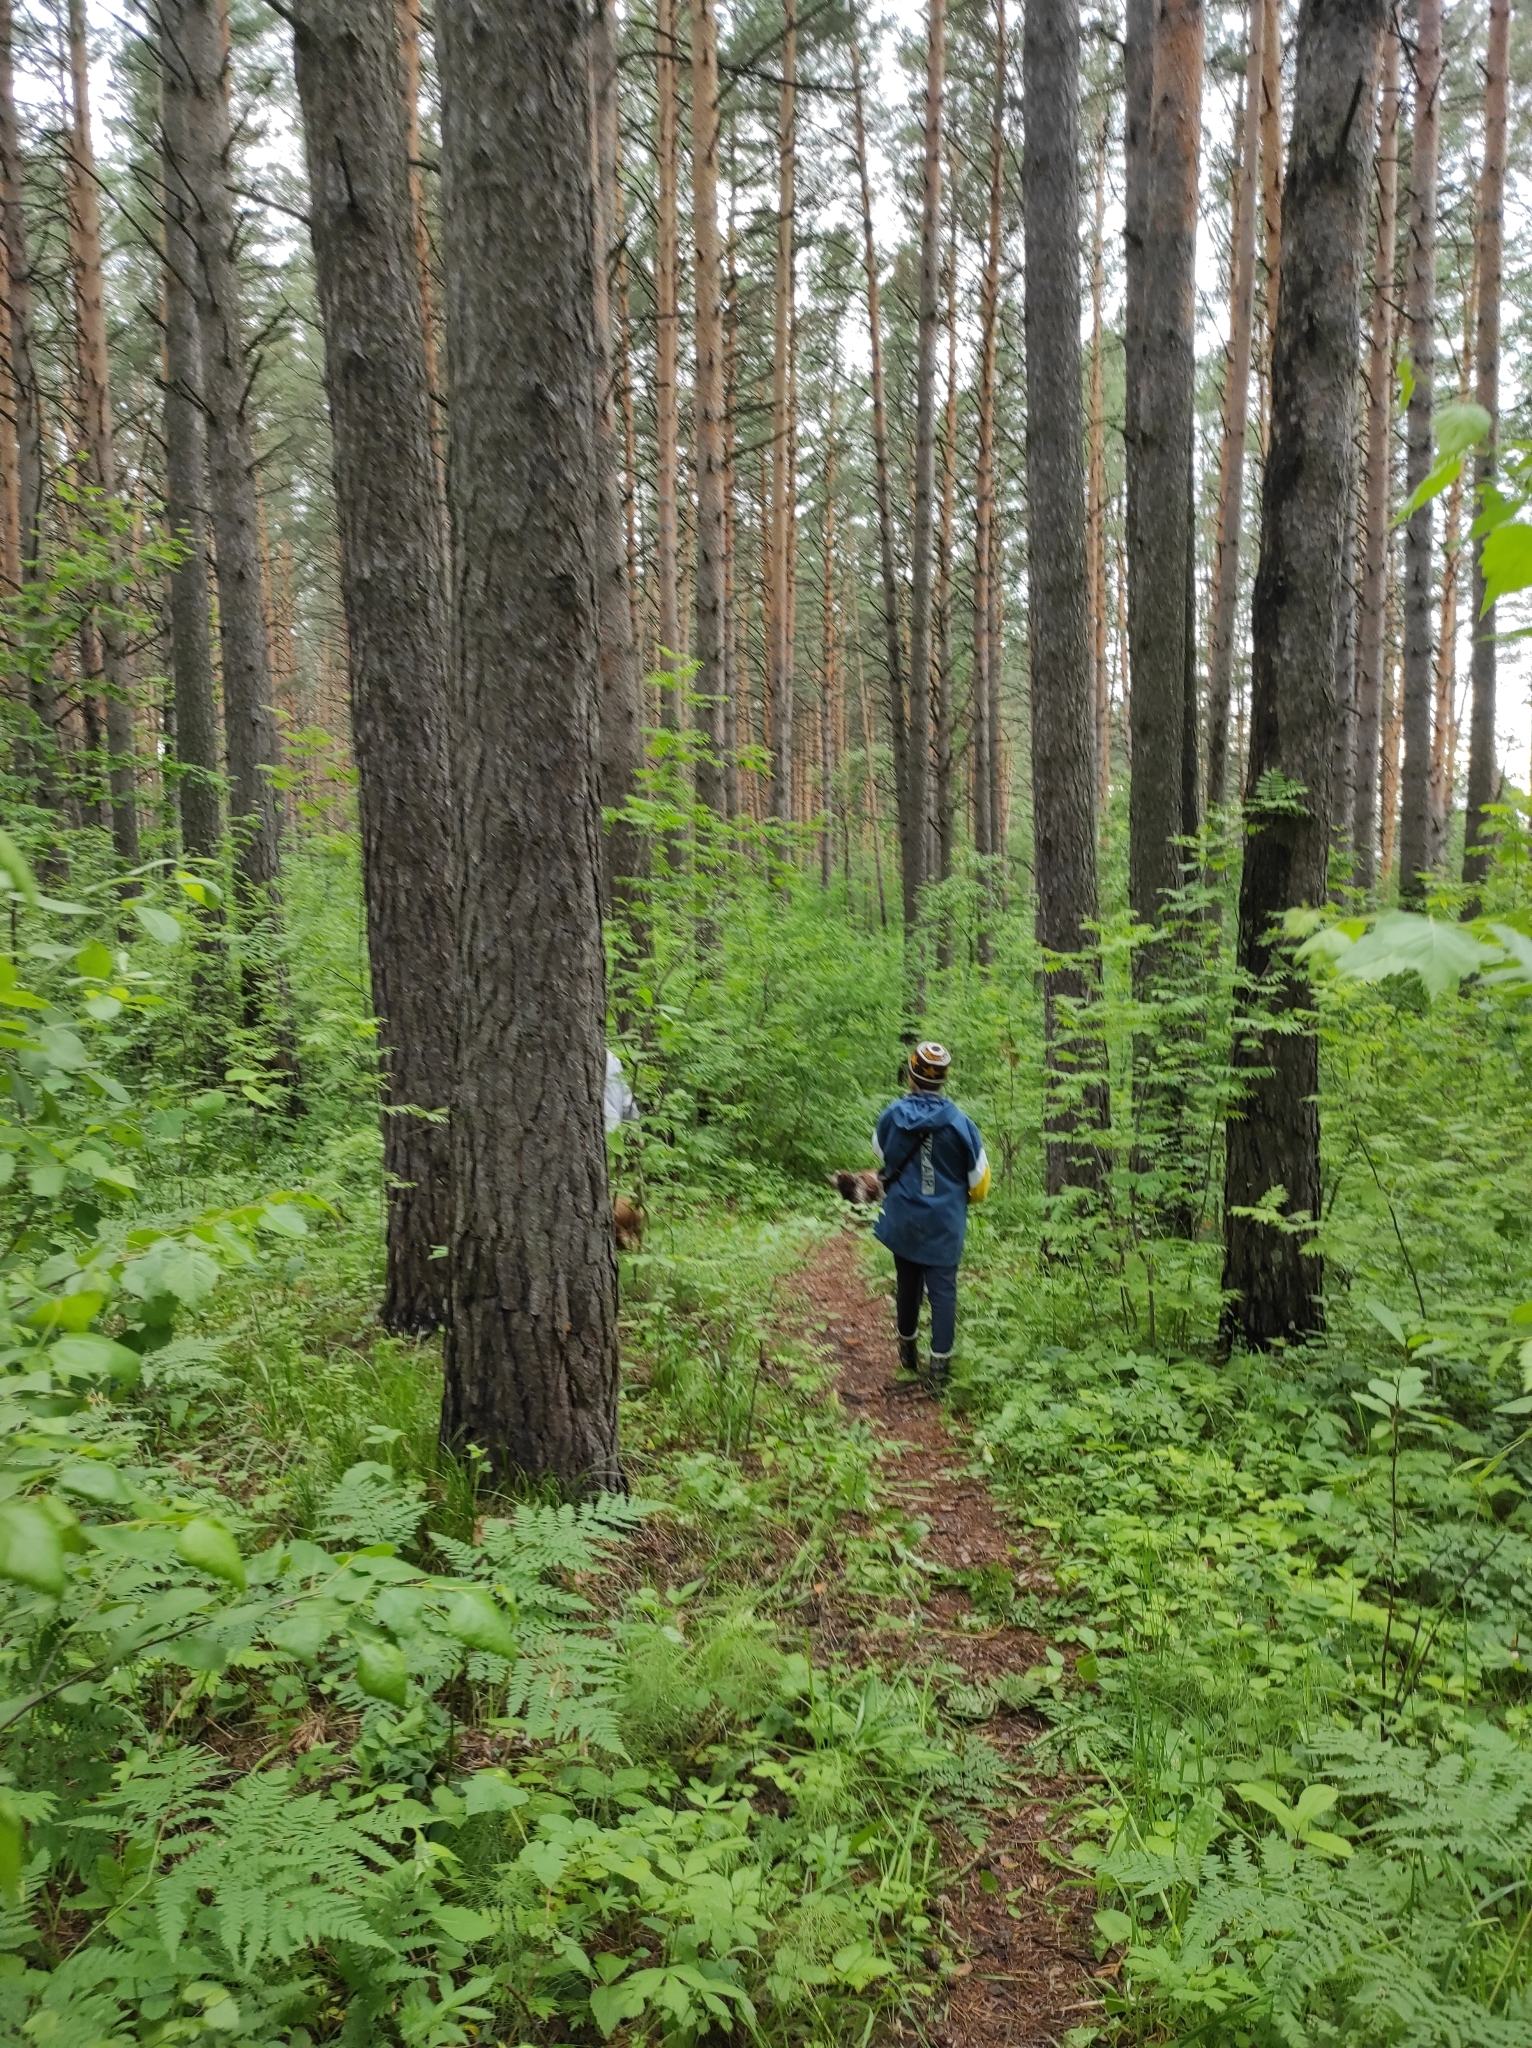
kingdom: Plantae
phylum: Tracheophyta
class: Pinopsida
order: Pinales
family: Pinaceae
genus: Pinus
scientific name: Pinus sylvestris
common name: Scots pine
